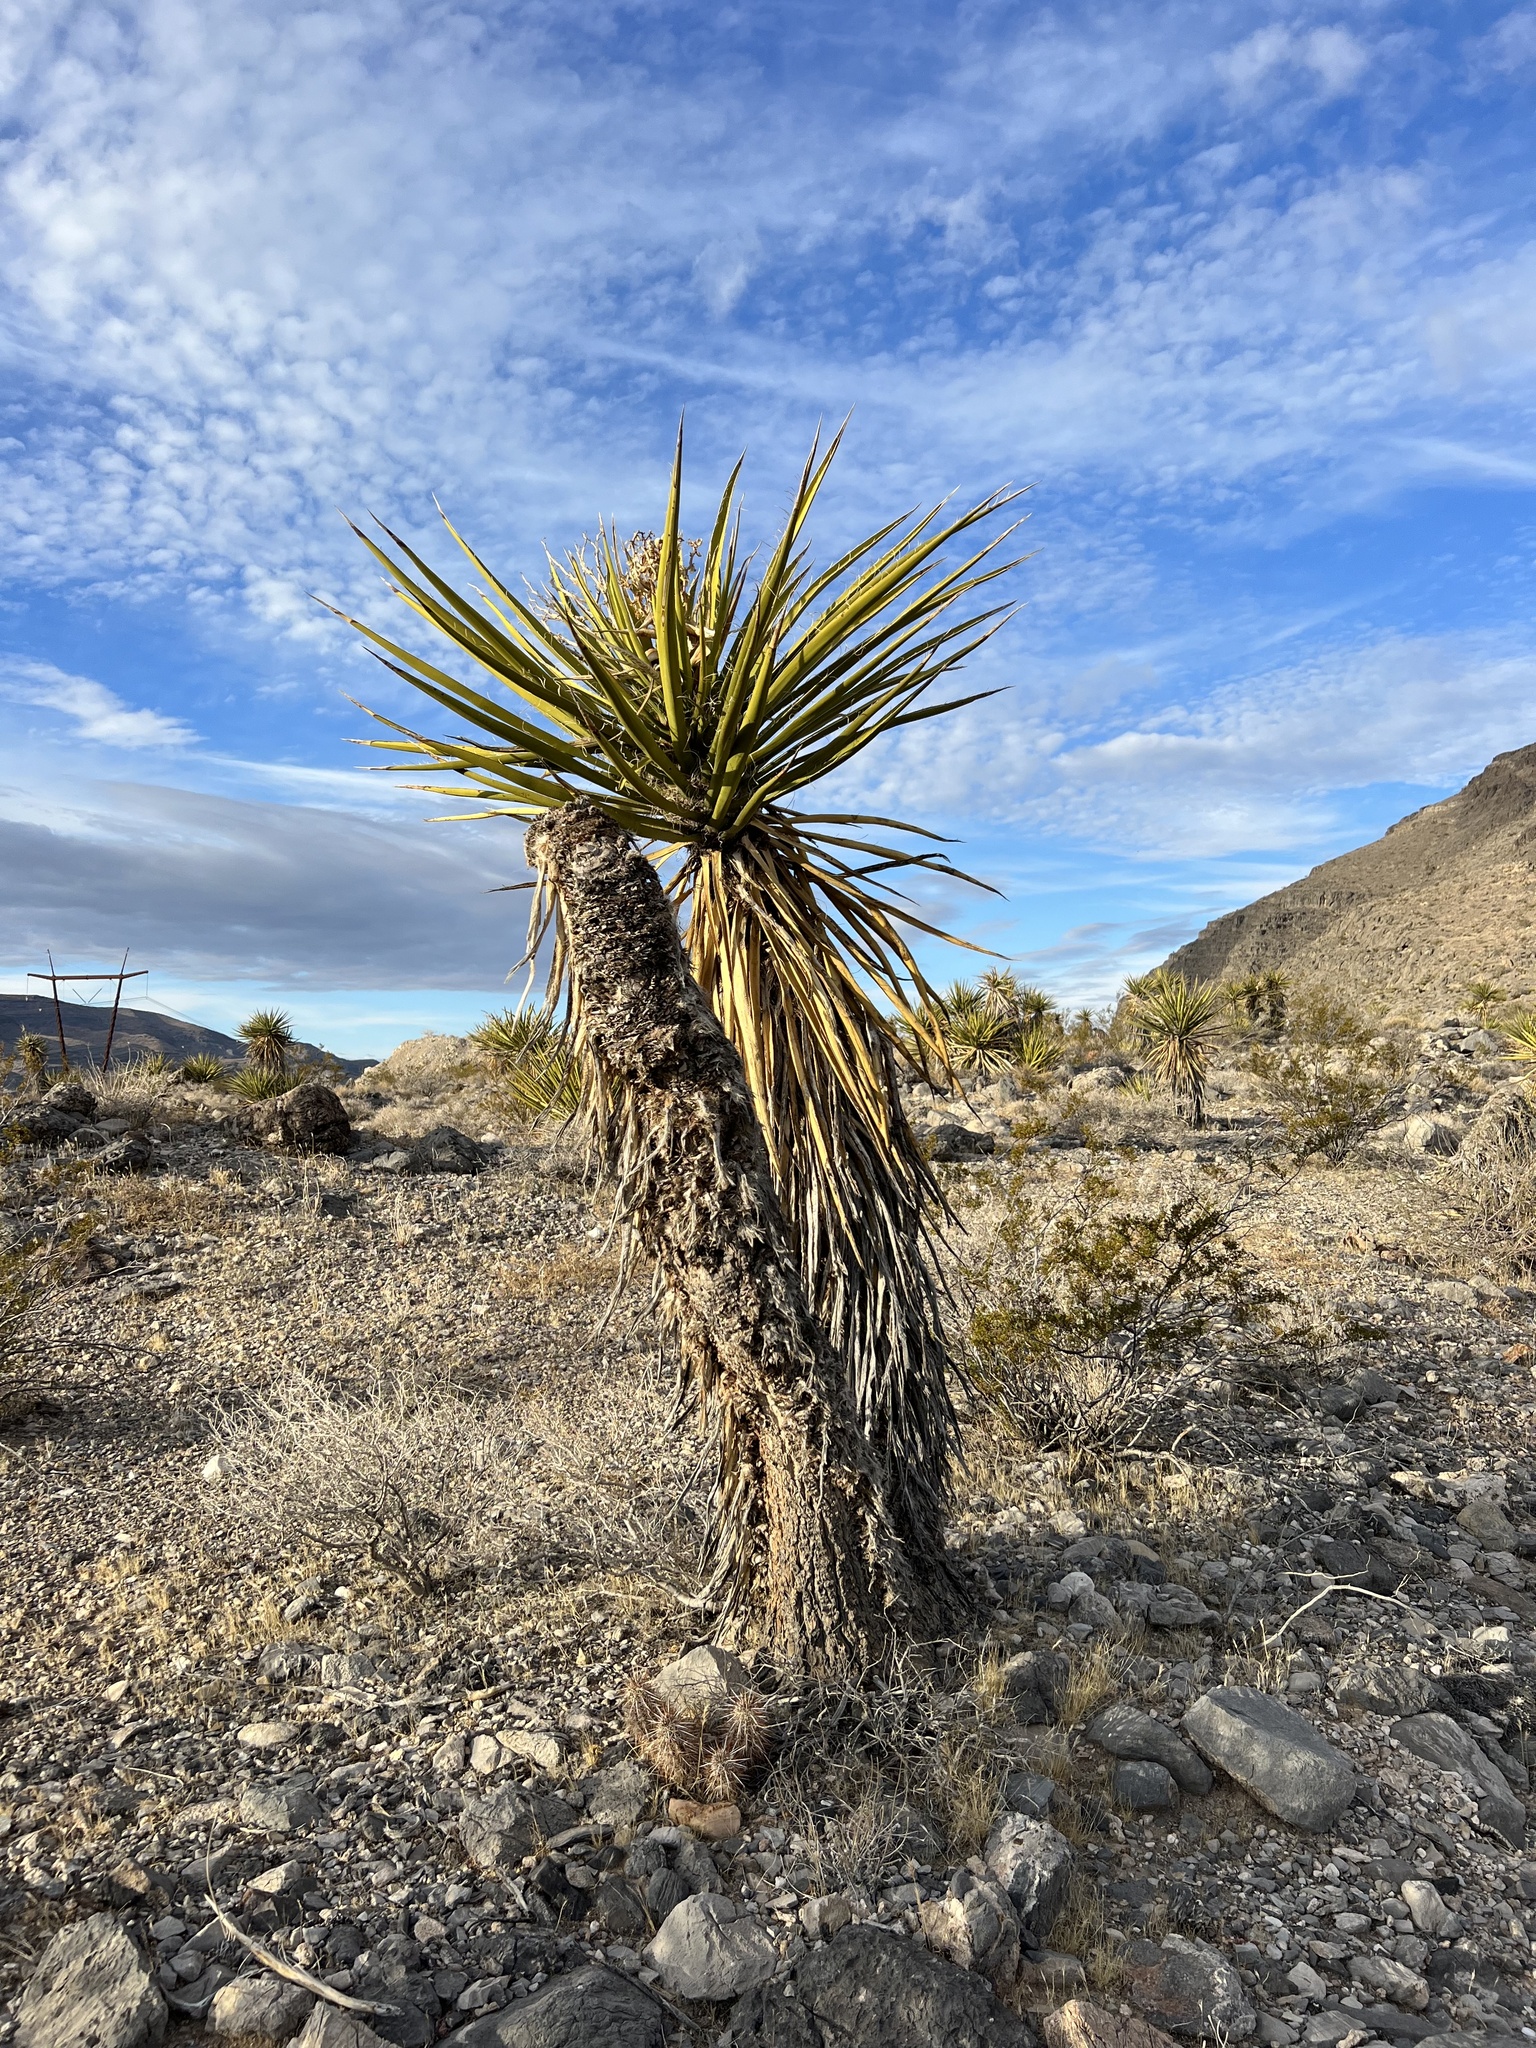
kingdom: Plantae
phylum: Tracheophyta
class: Liliopsida
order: Asparagales
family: Asparagaceae
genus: Yucca
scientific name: Yucca schidigera
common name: Mojave yucca
